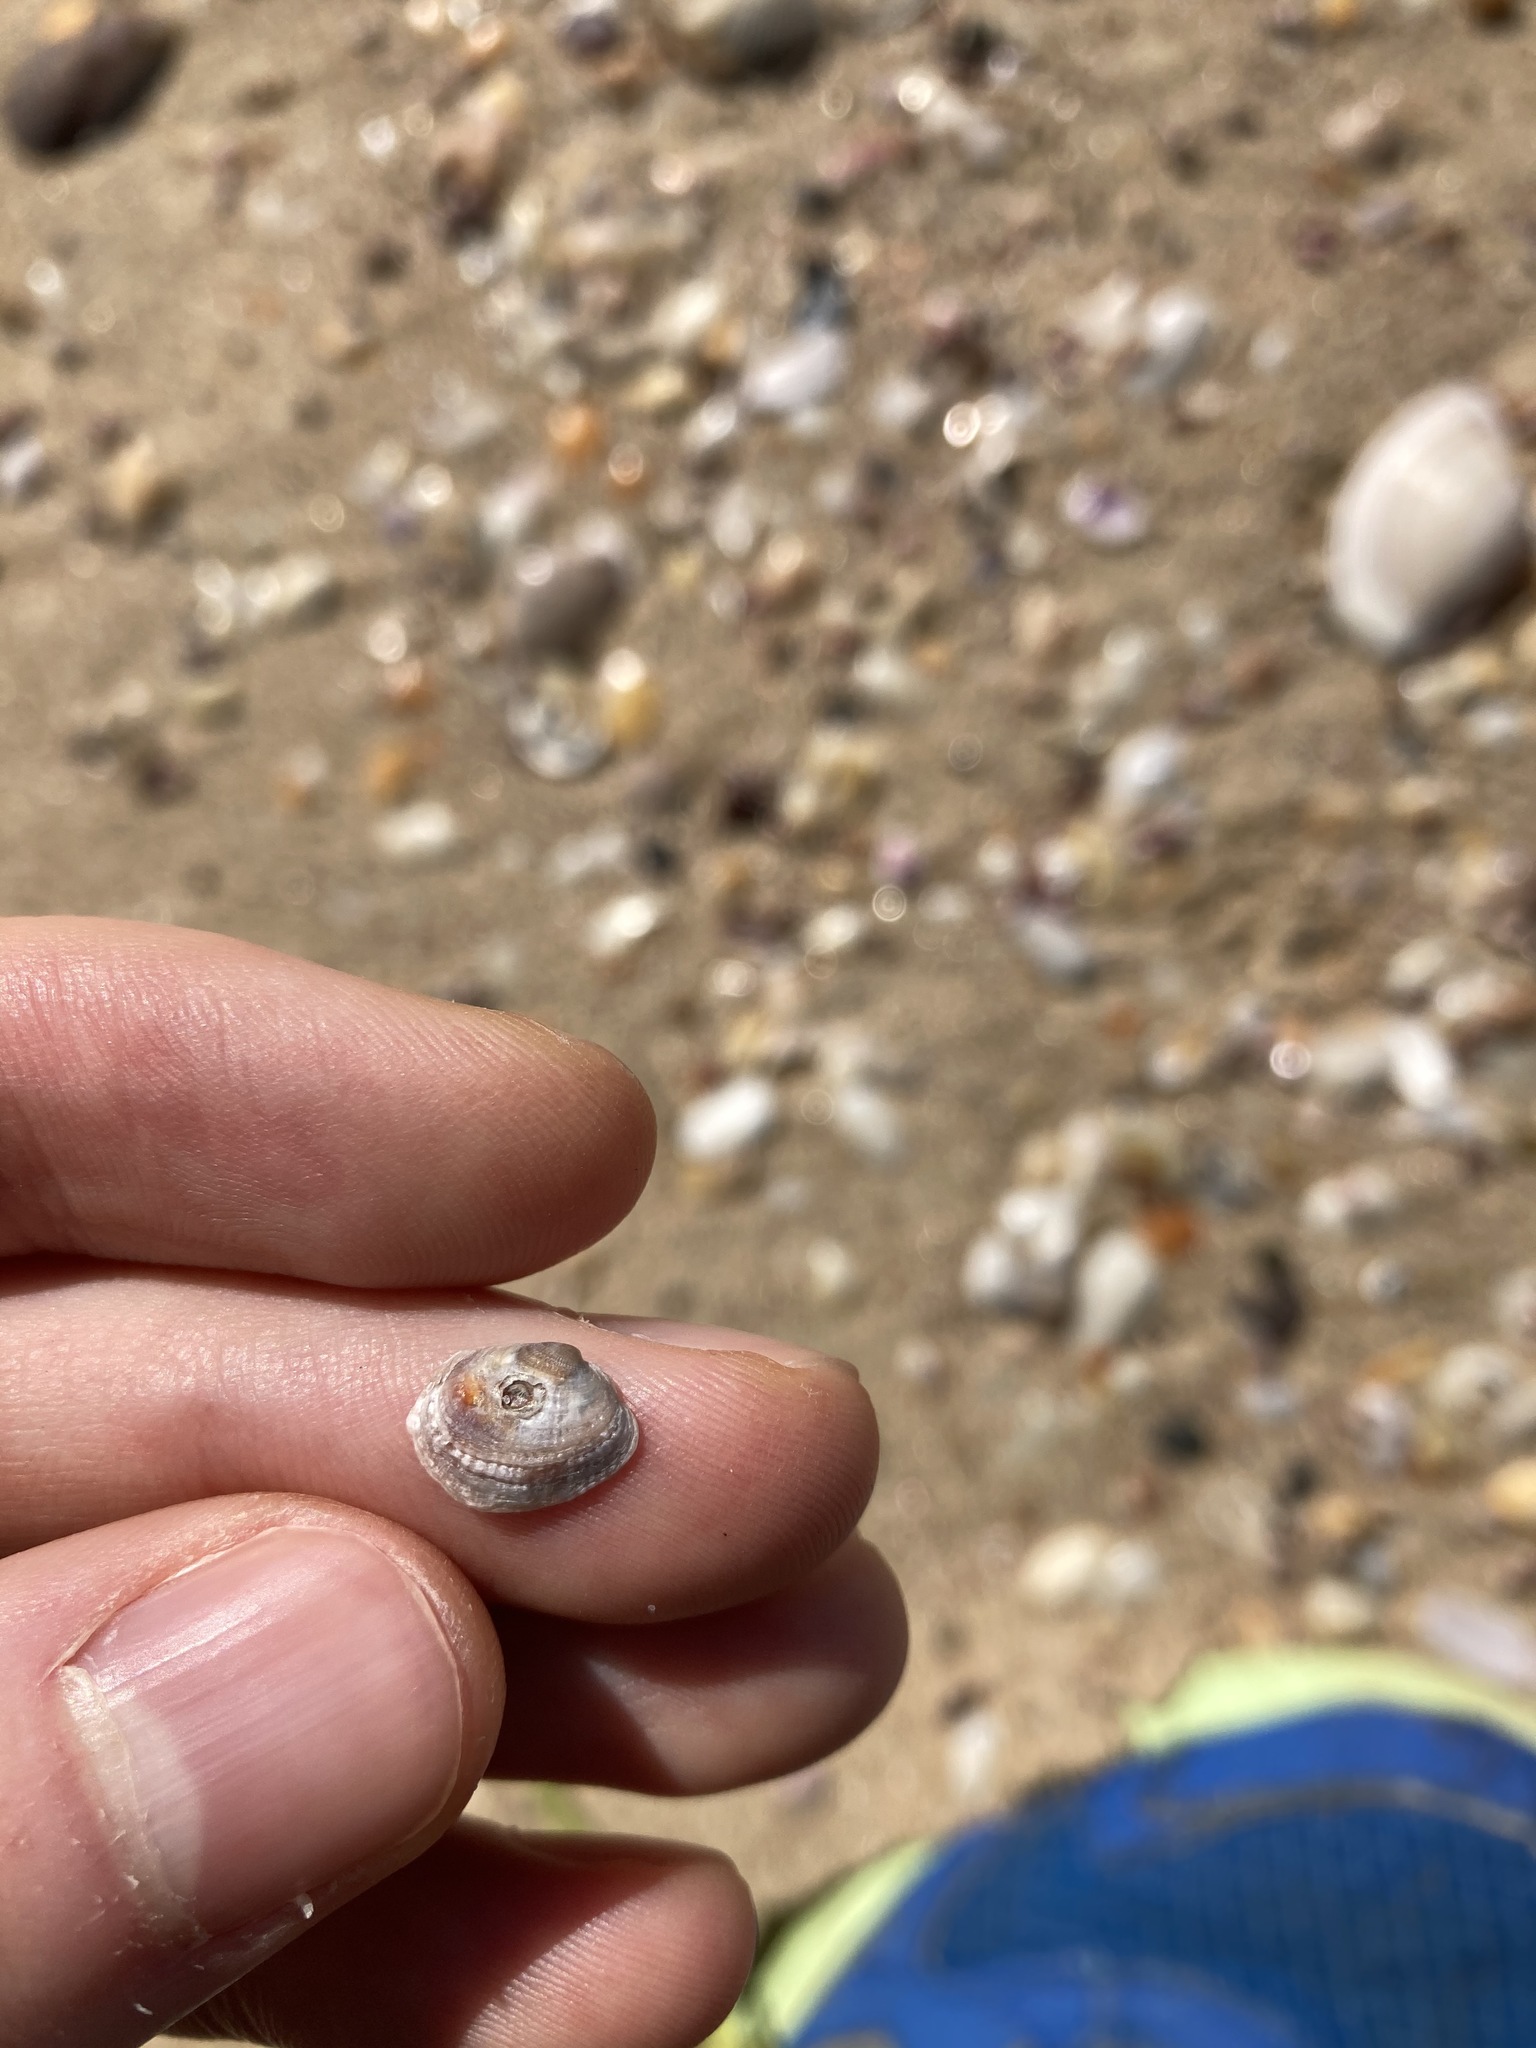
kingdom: Animalia
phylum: Mollusca
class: Bivalvia
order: Venerida
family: Veneridae
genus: Irus
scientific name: Irus cumingii
